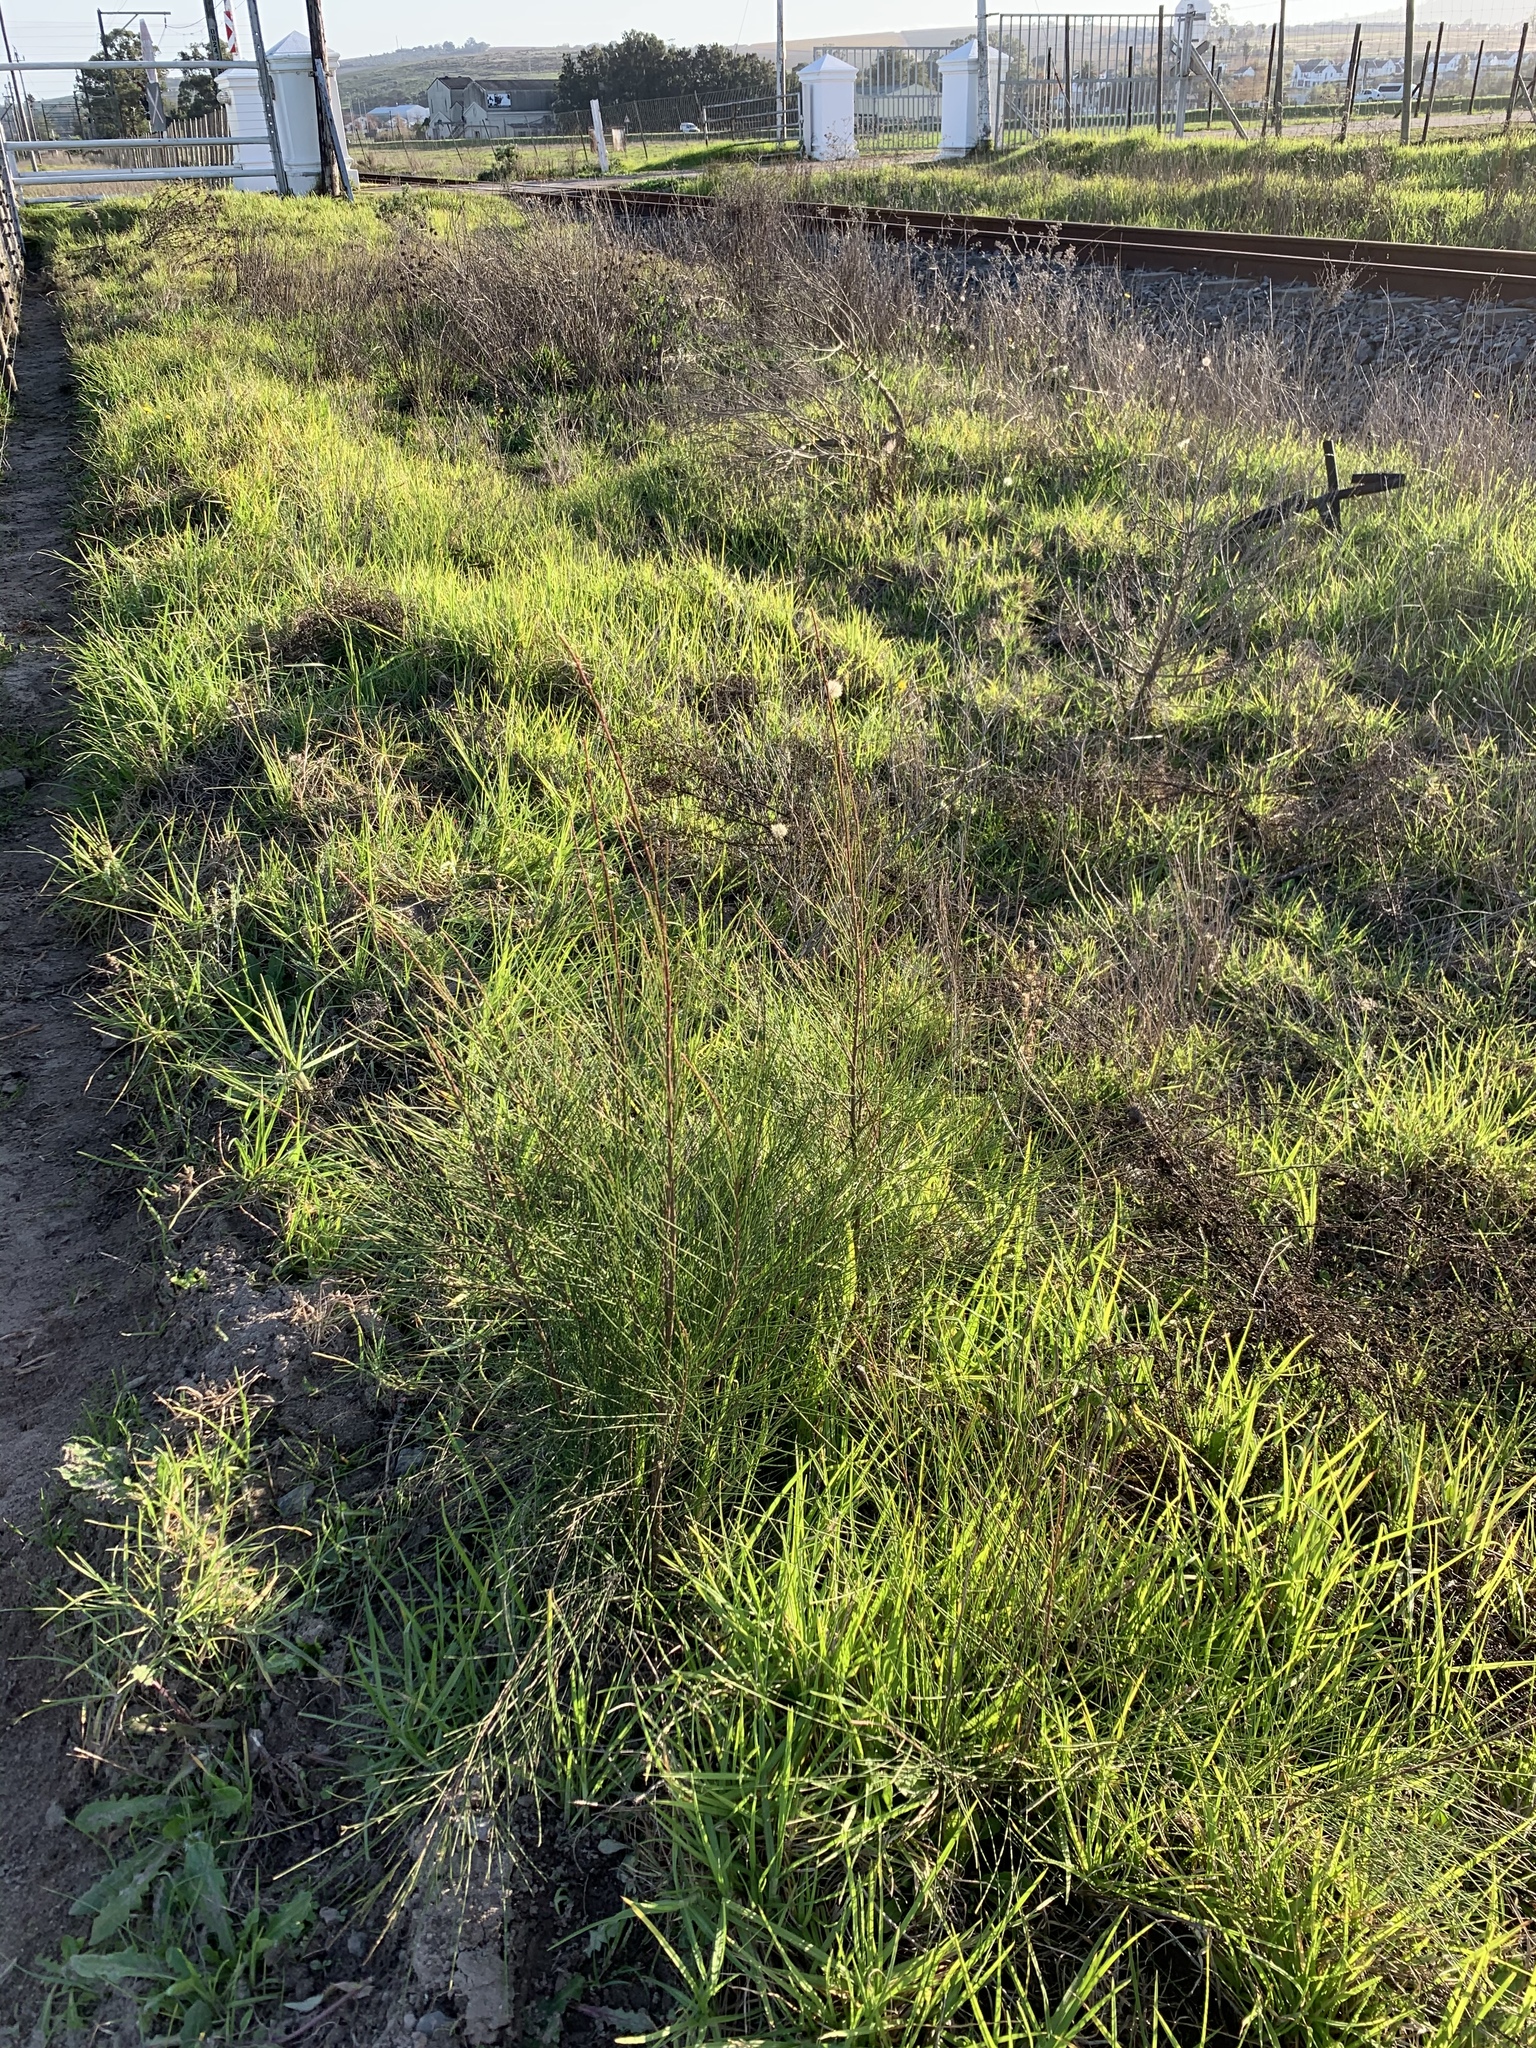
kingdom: Plantae
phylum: Tracheophyta
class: Magnoliopsida
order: Fagales
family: Casuarinaceae
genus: Casuarina
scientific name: Casuarina cunninghamiana
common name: River sheoak
